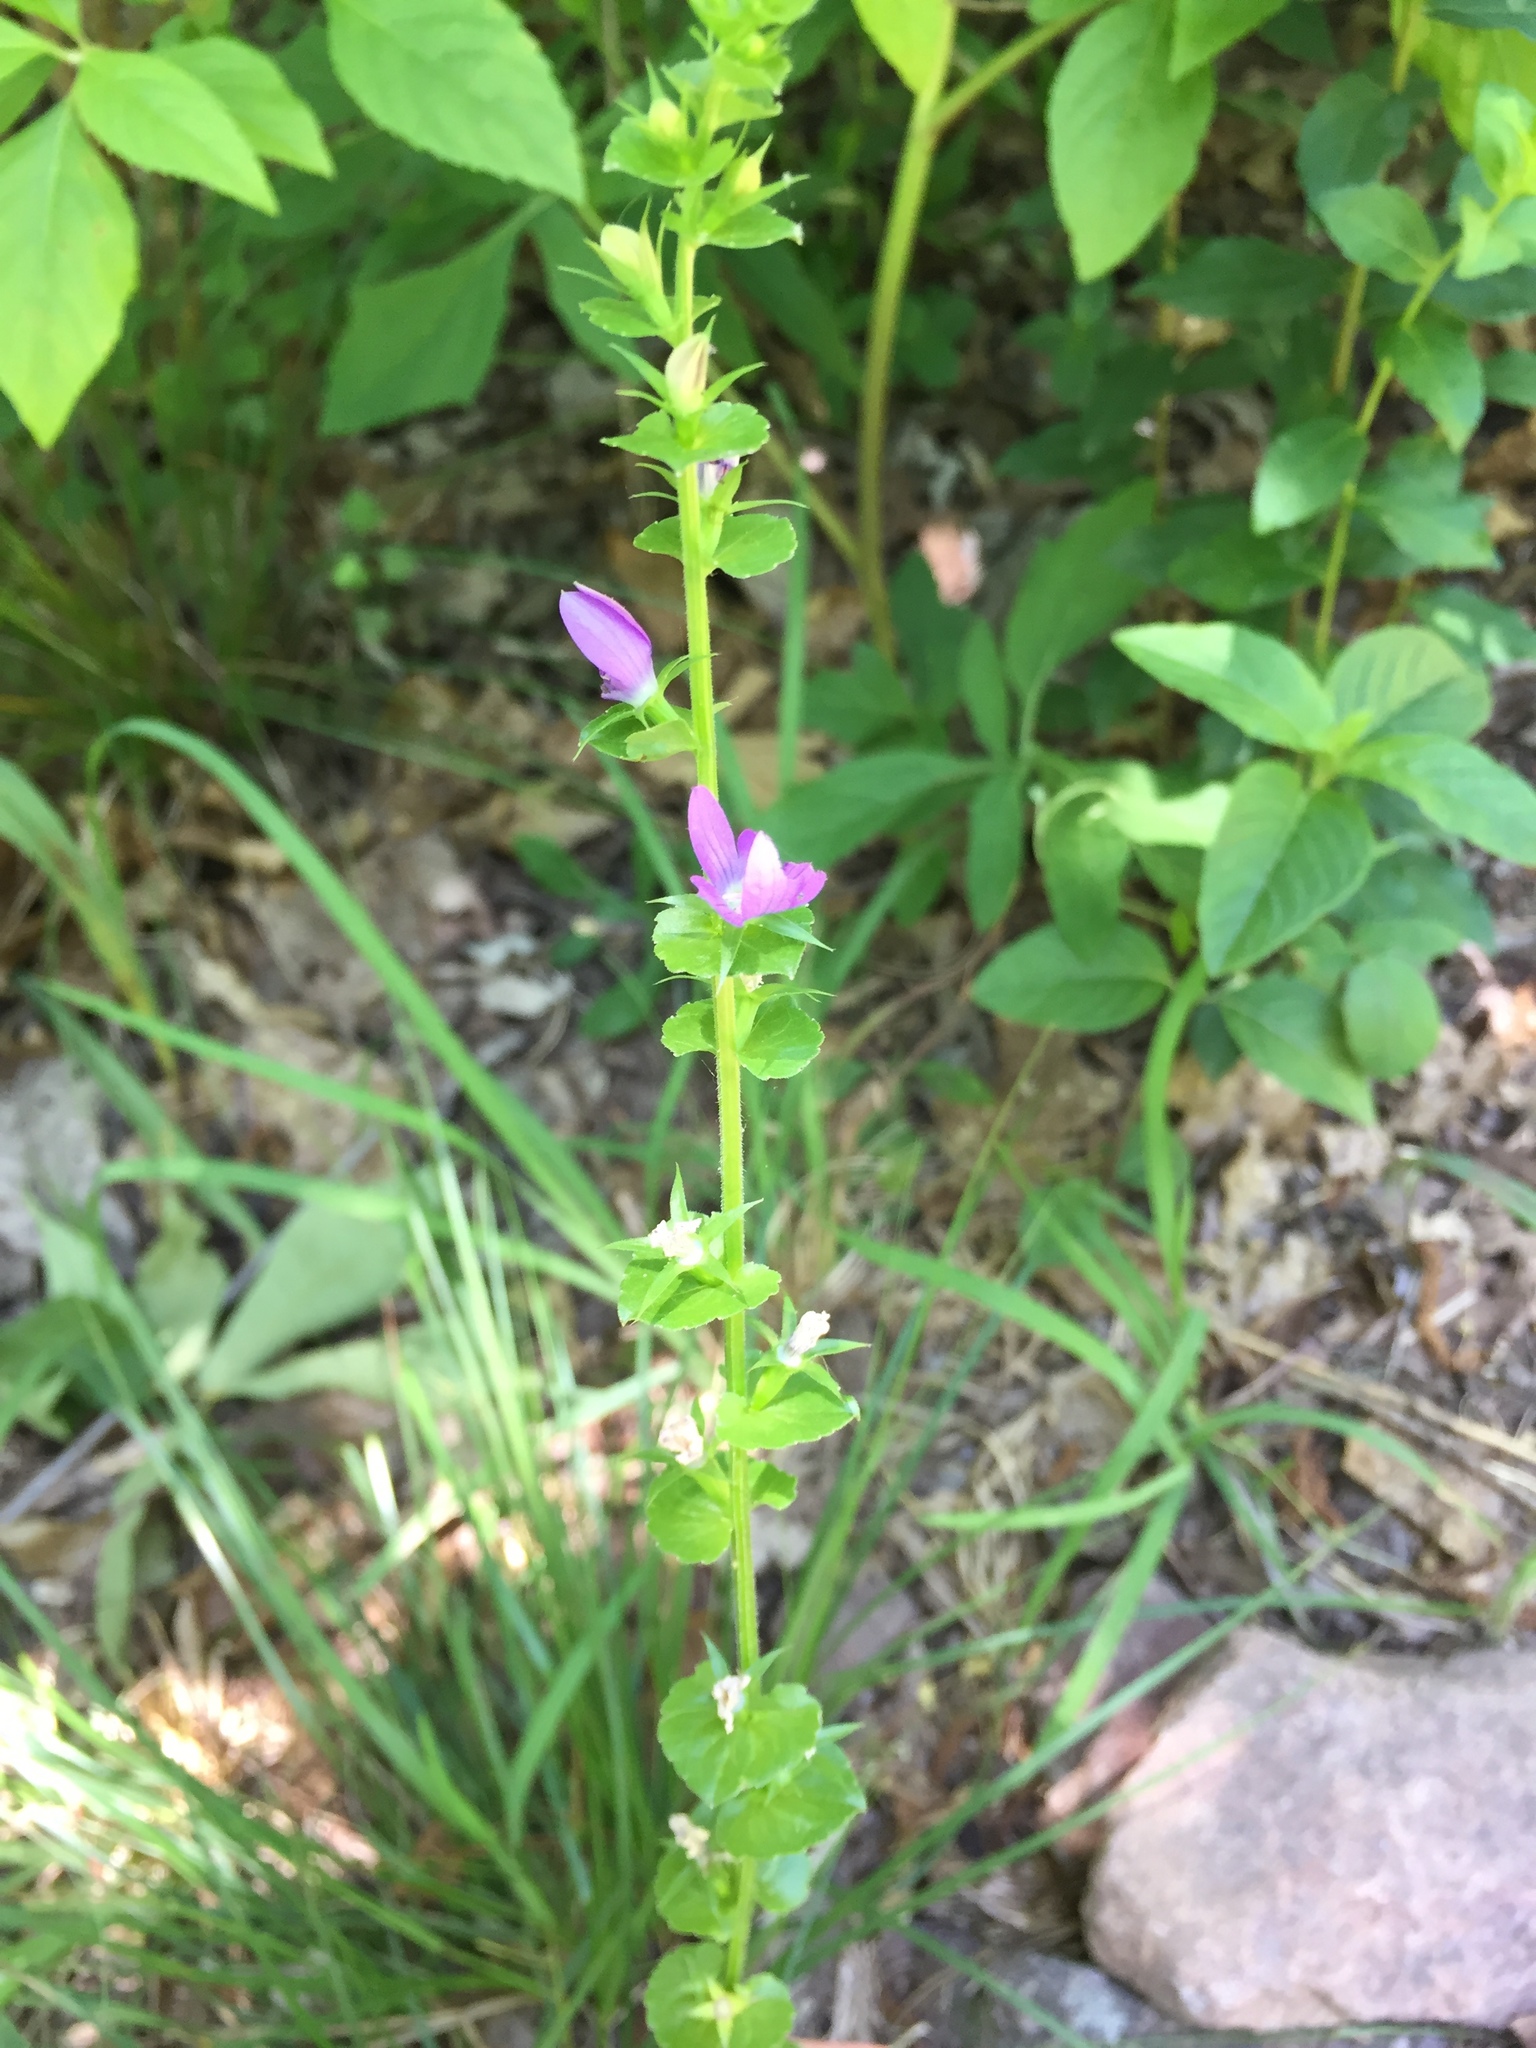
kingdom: Plantae
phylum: Tracheophyta
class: Magnoliopsida
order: Asterales
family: Campanulaceae
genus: Triodanis
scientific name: Triodanis perfoliata
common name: Clasping venus' looking-glass
